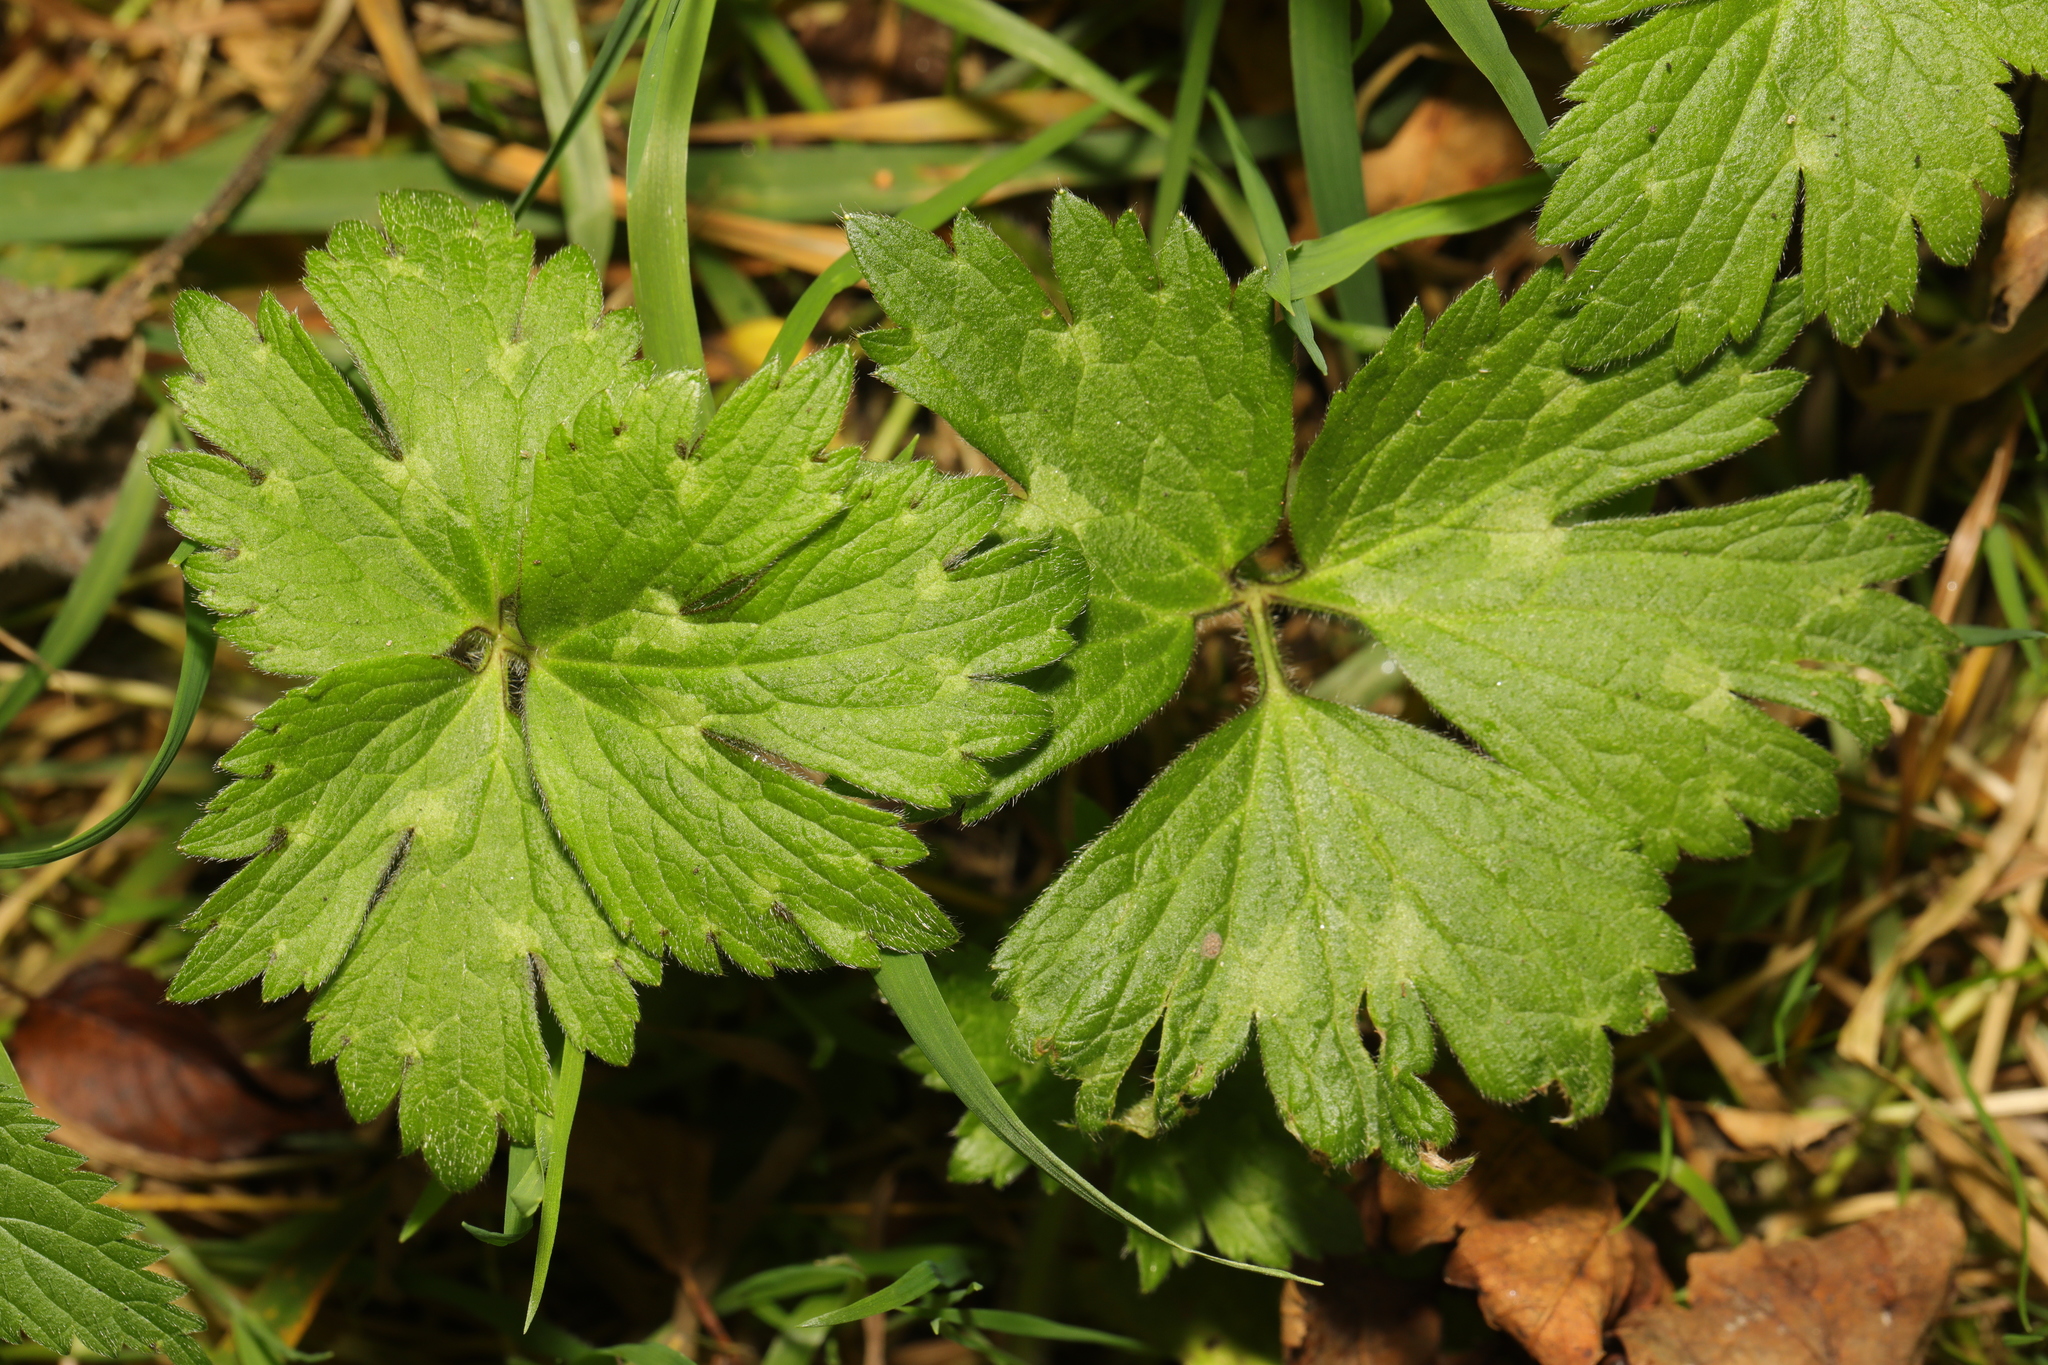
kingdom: Plantae
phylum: Tracheophyta
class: Magnoliopsida
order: Ranunculales
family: Ranunculaceae
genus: Ranunculus
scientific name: Ranunculus repens
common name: Creeping buttercup
